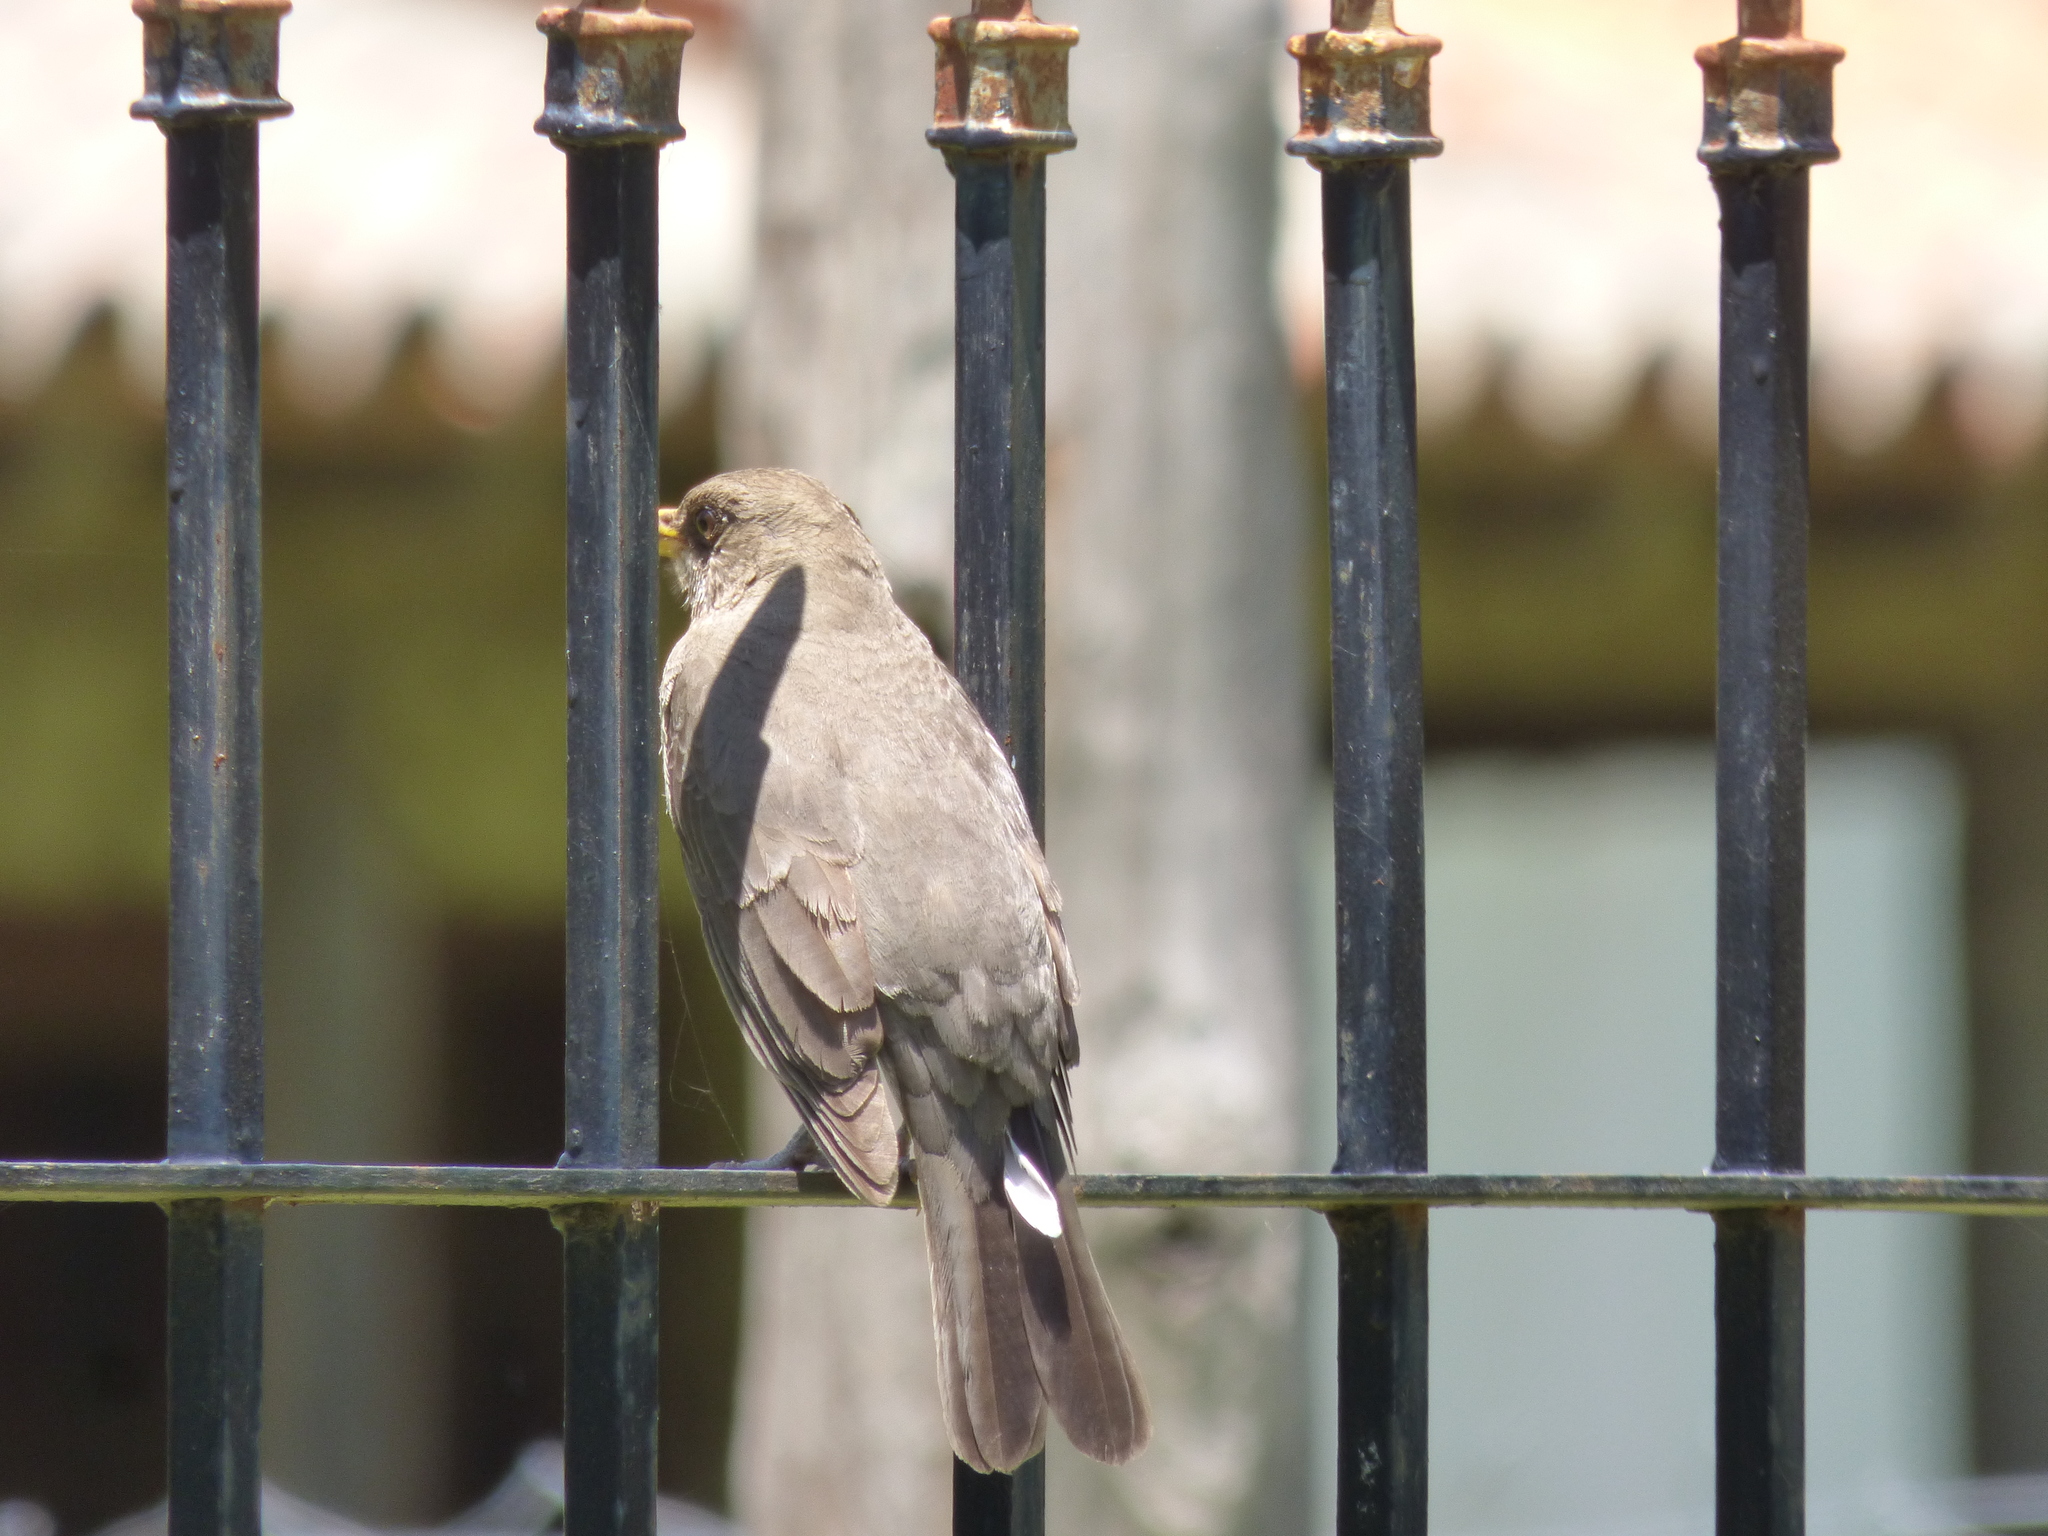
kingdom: Animalia
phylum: Chordata
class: Aves
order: Passeriformes
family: Turdidae
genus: Turdus
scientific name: Turdus amaurochalinus
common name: Creamy-bellied thrush
